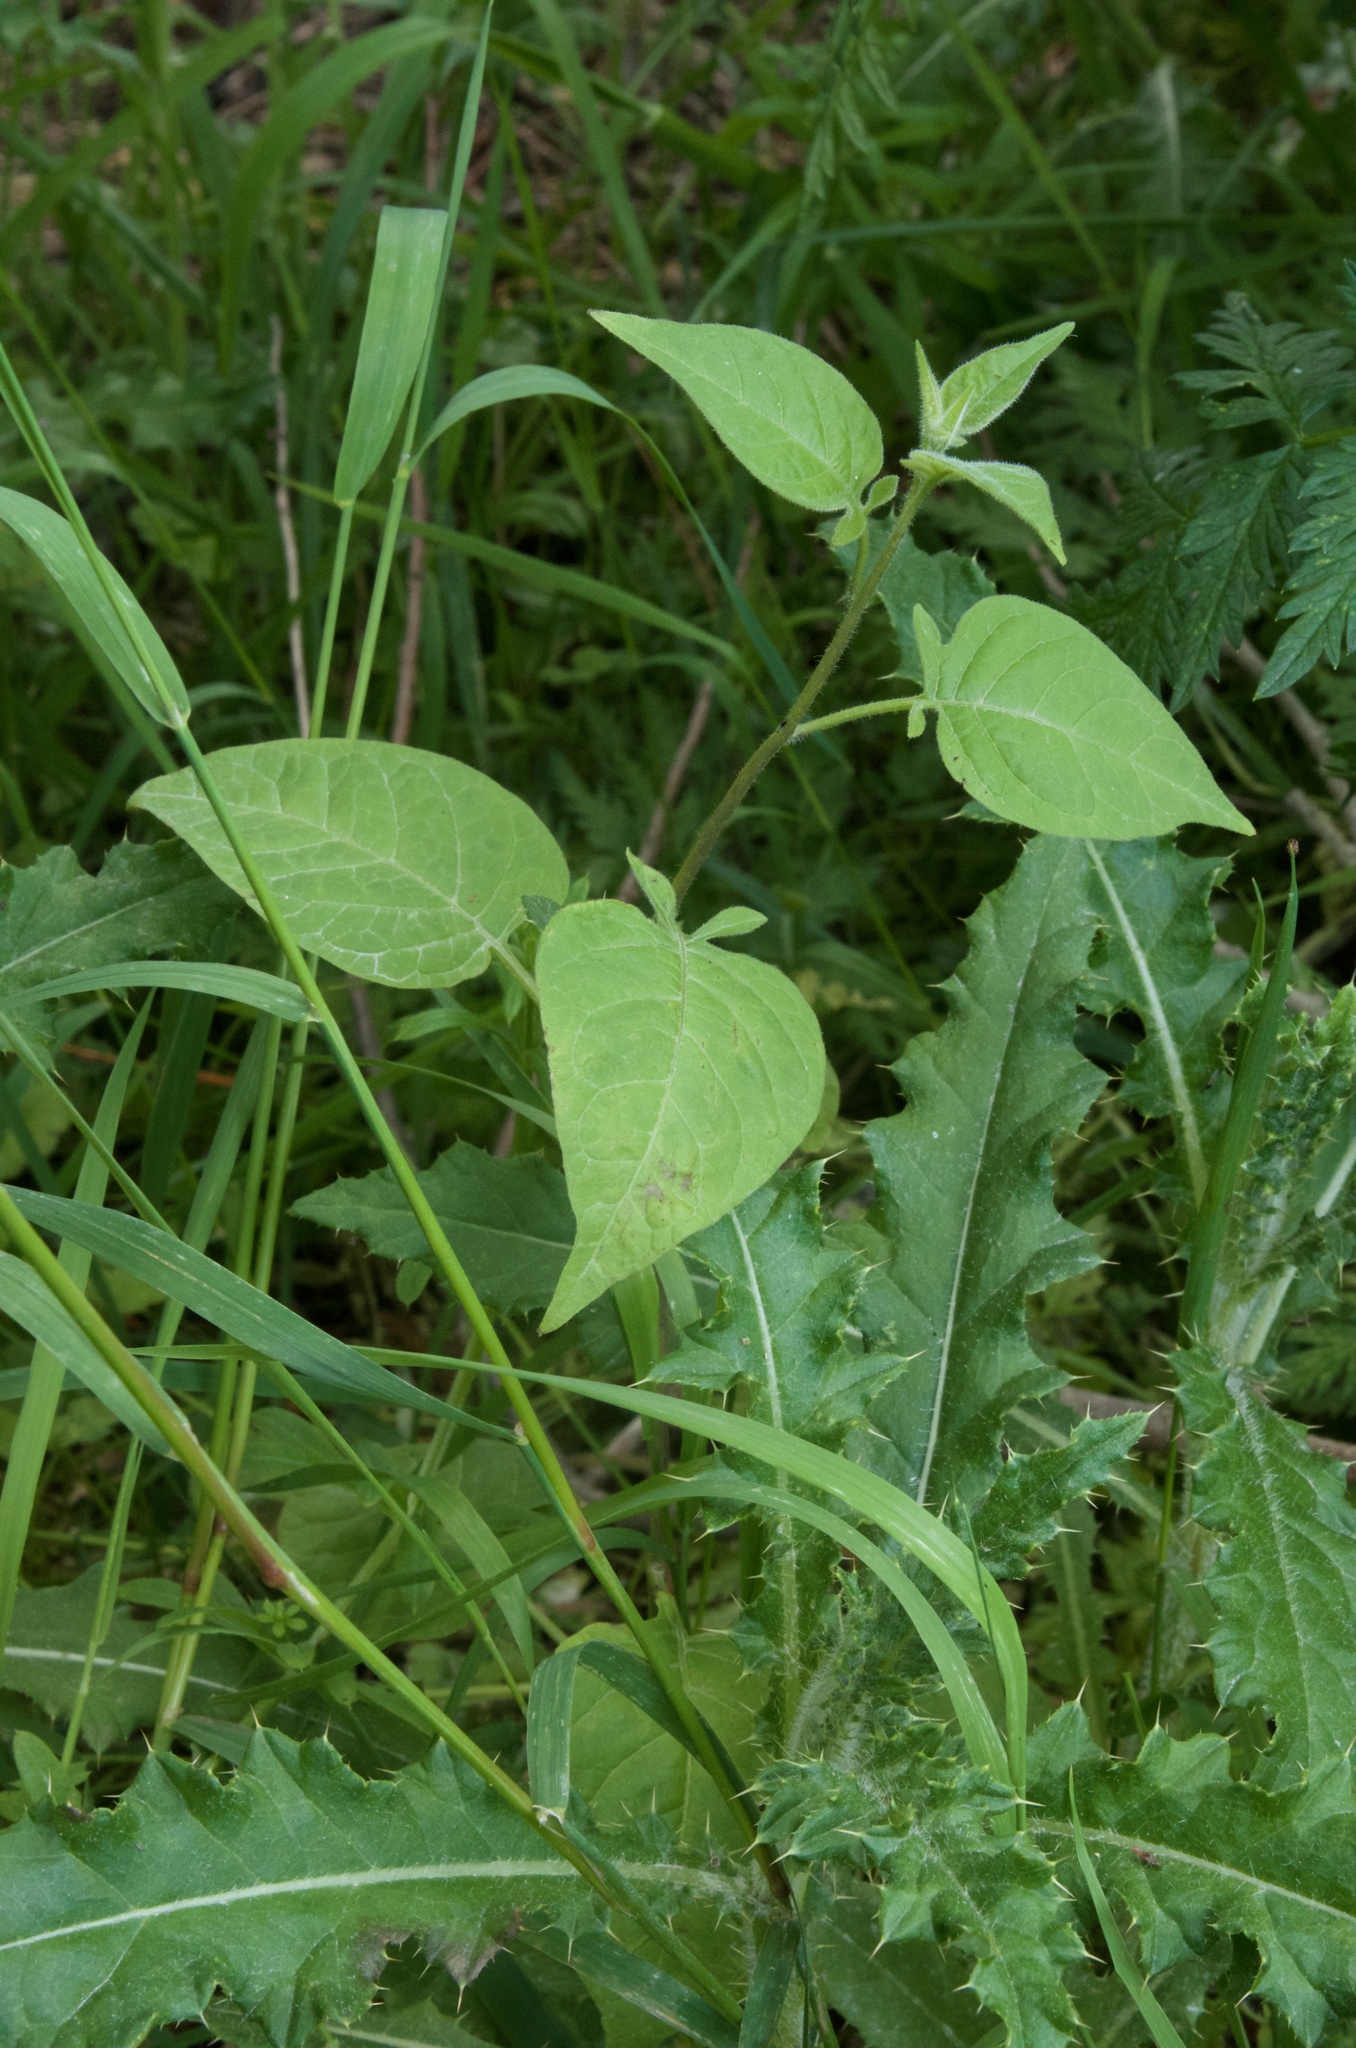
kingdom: Plantae
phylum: Tracheophyta
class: Magnoliopsida
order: Solanales
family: Solanaceae
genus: Solanum
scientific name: Solanum dulcamara
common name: Climbing nightshade
